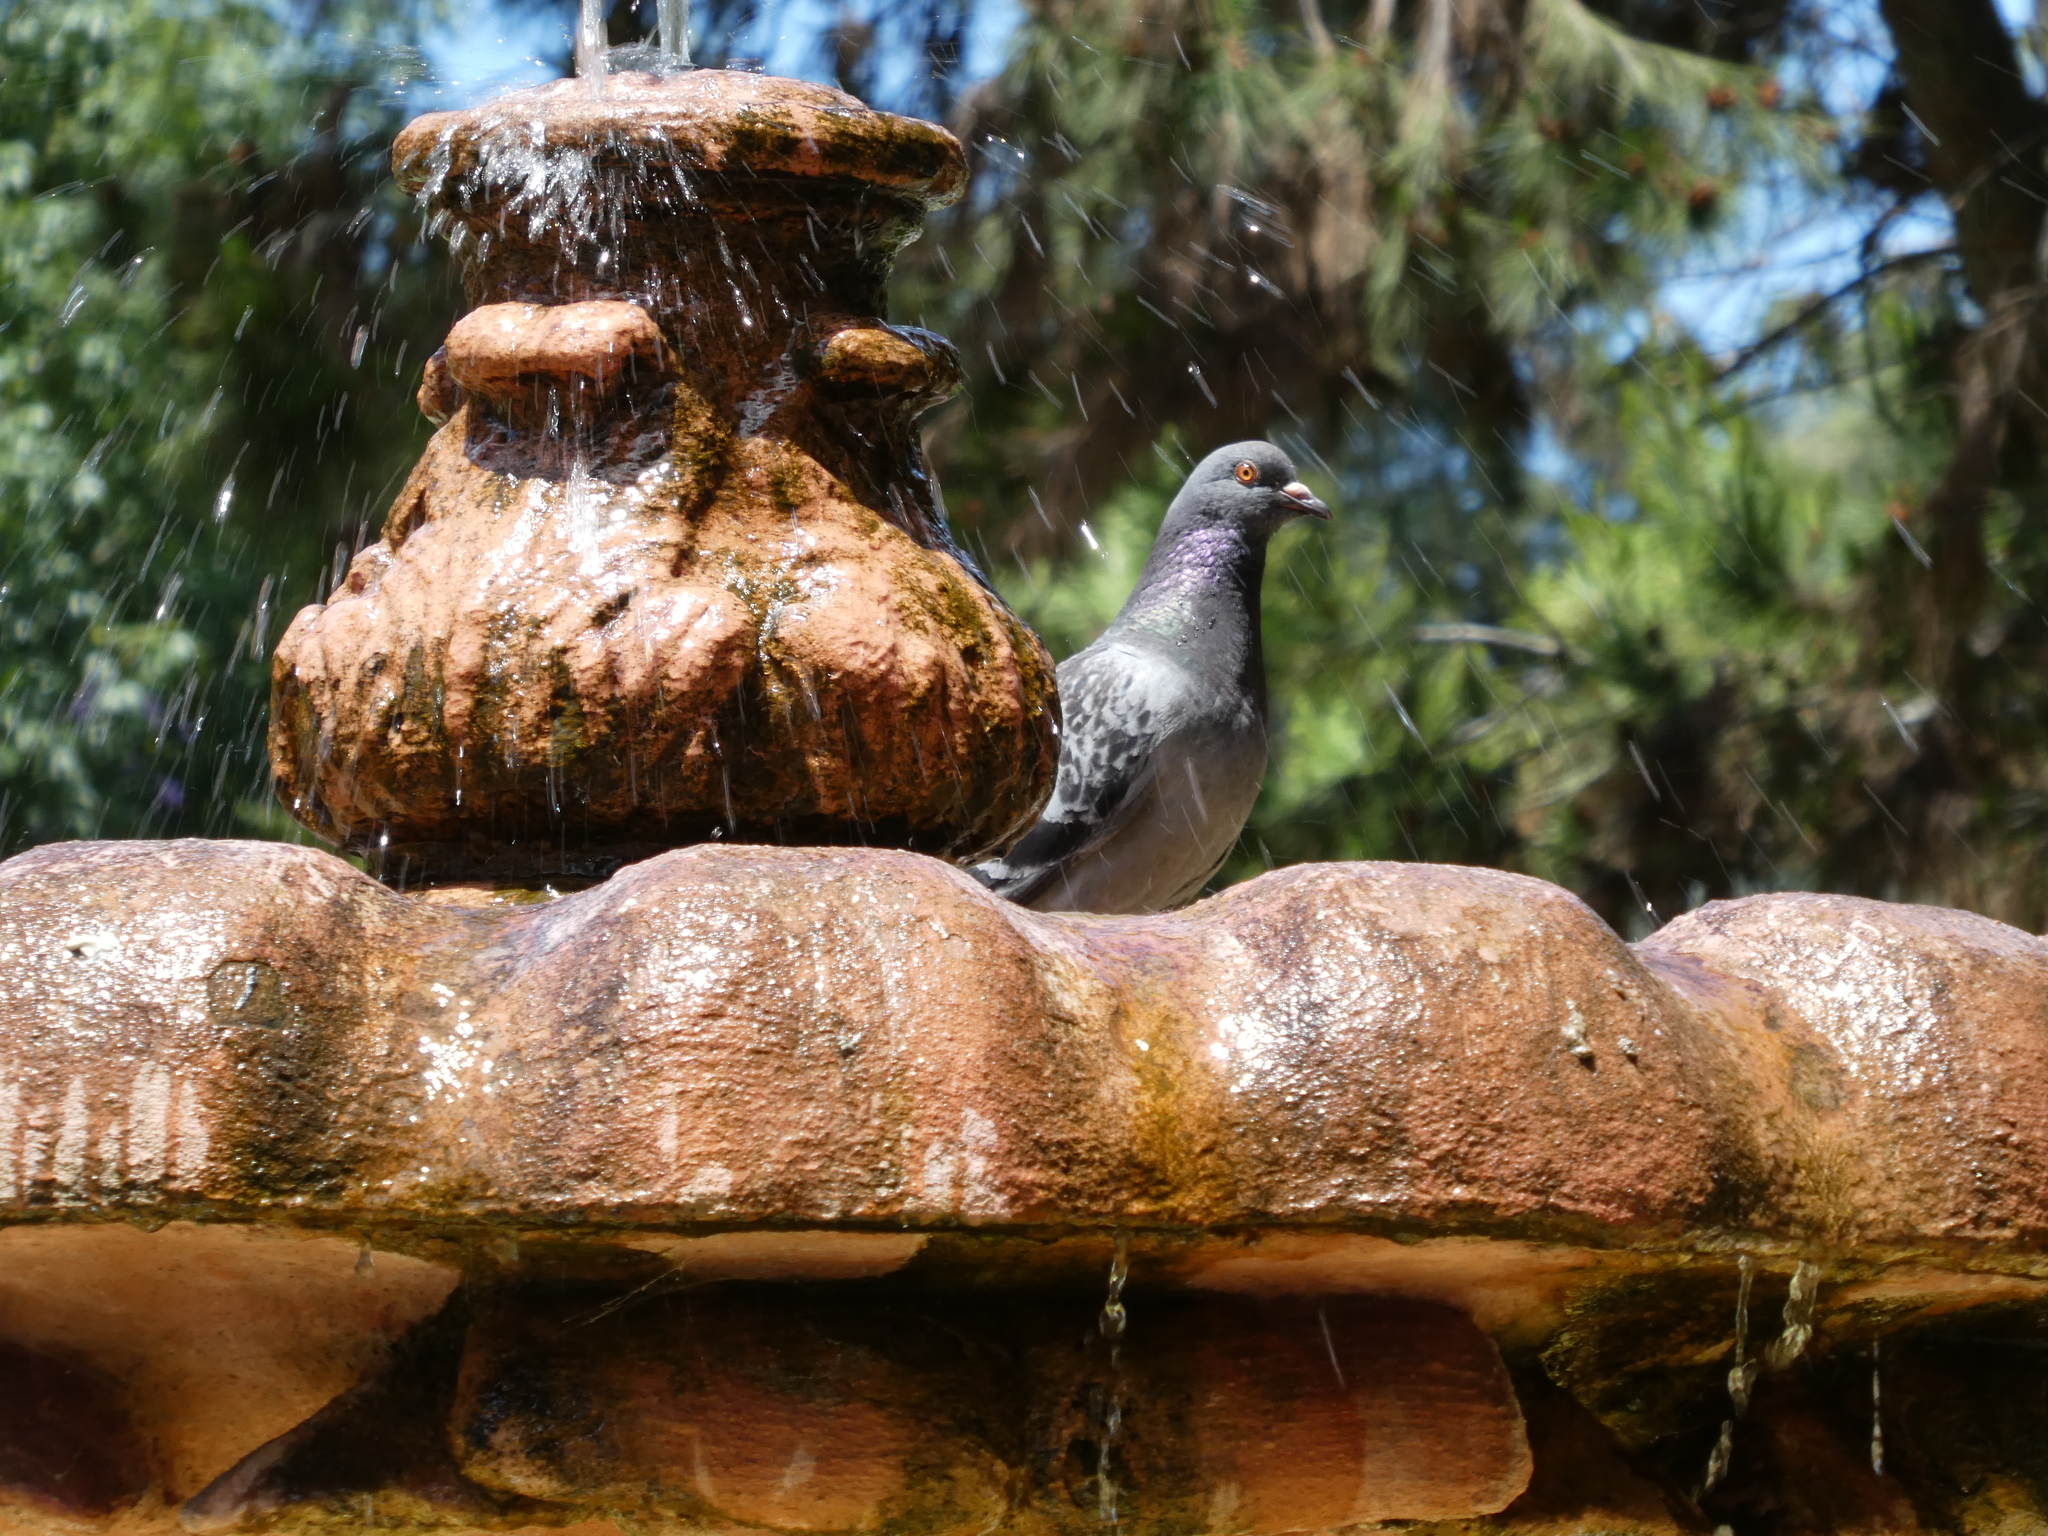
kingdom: Animalia
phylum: Chordata
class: Aves
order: Columbiformes
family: Columbidae
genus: Columba
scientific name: Columba livia
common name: Rock pigeon
